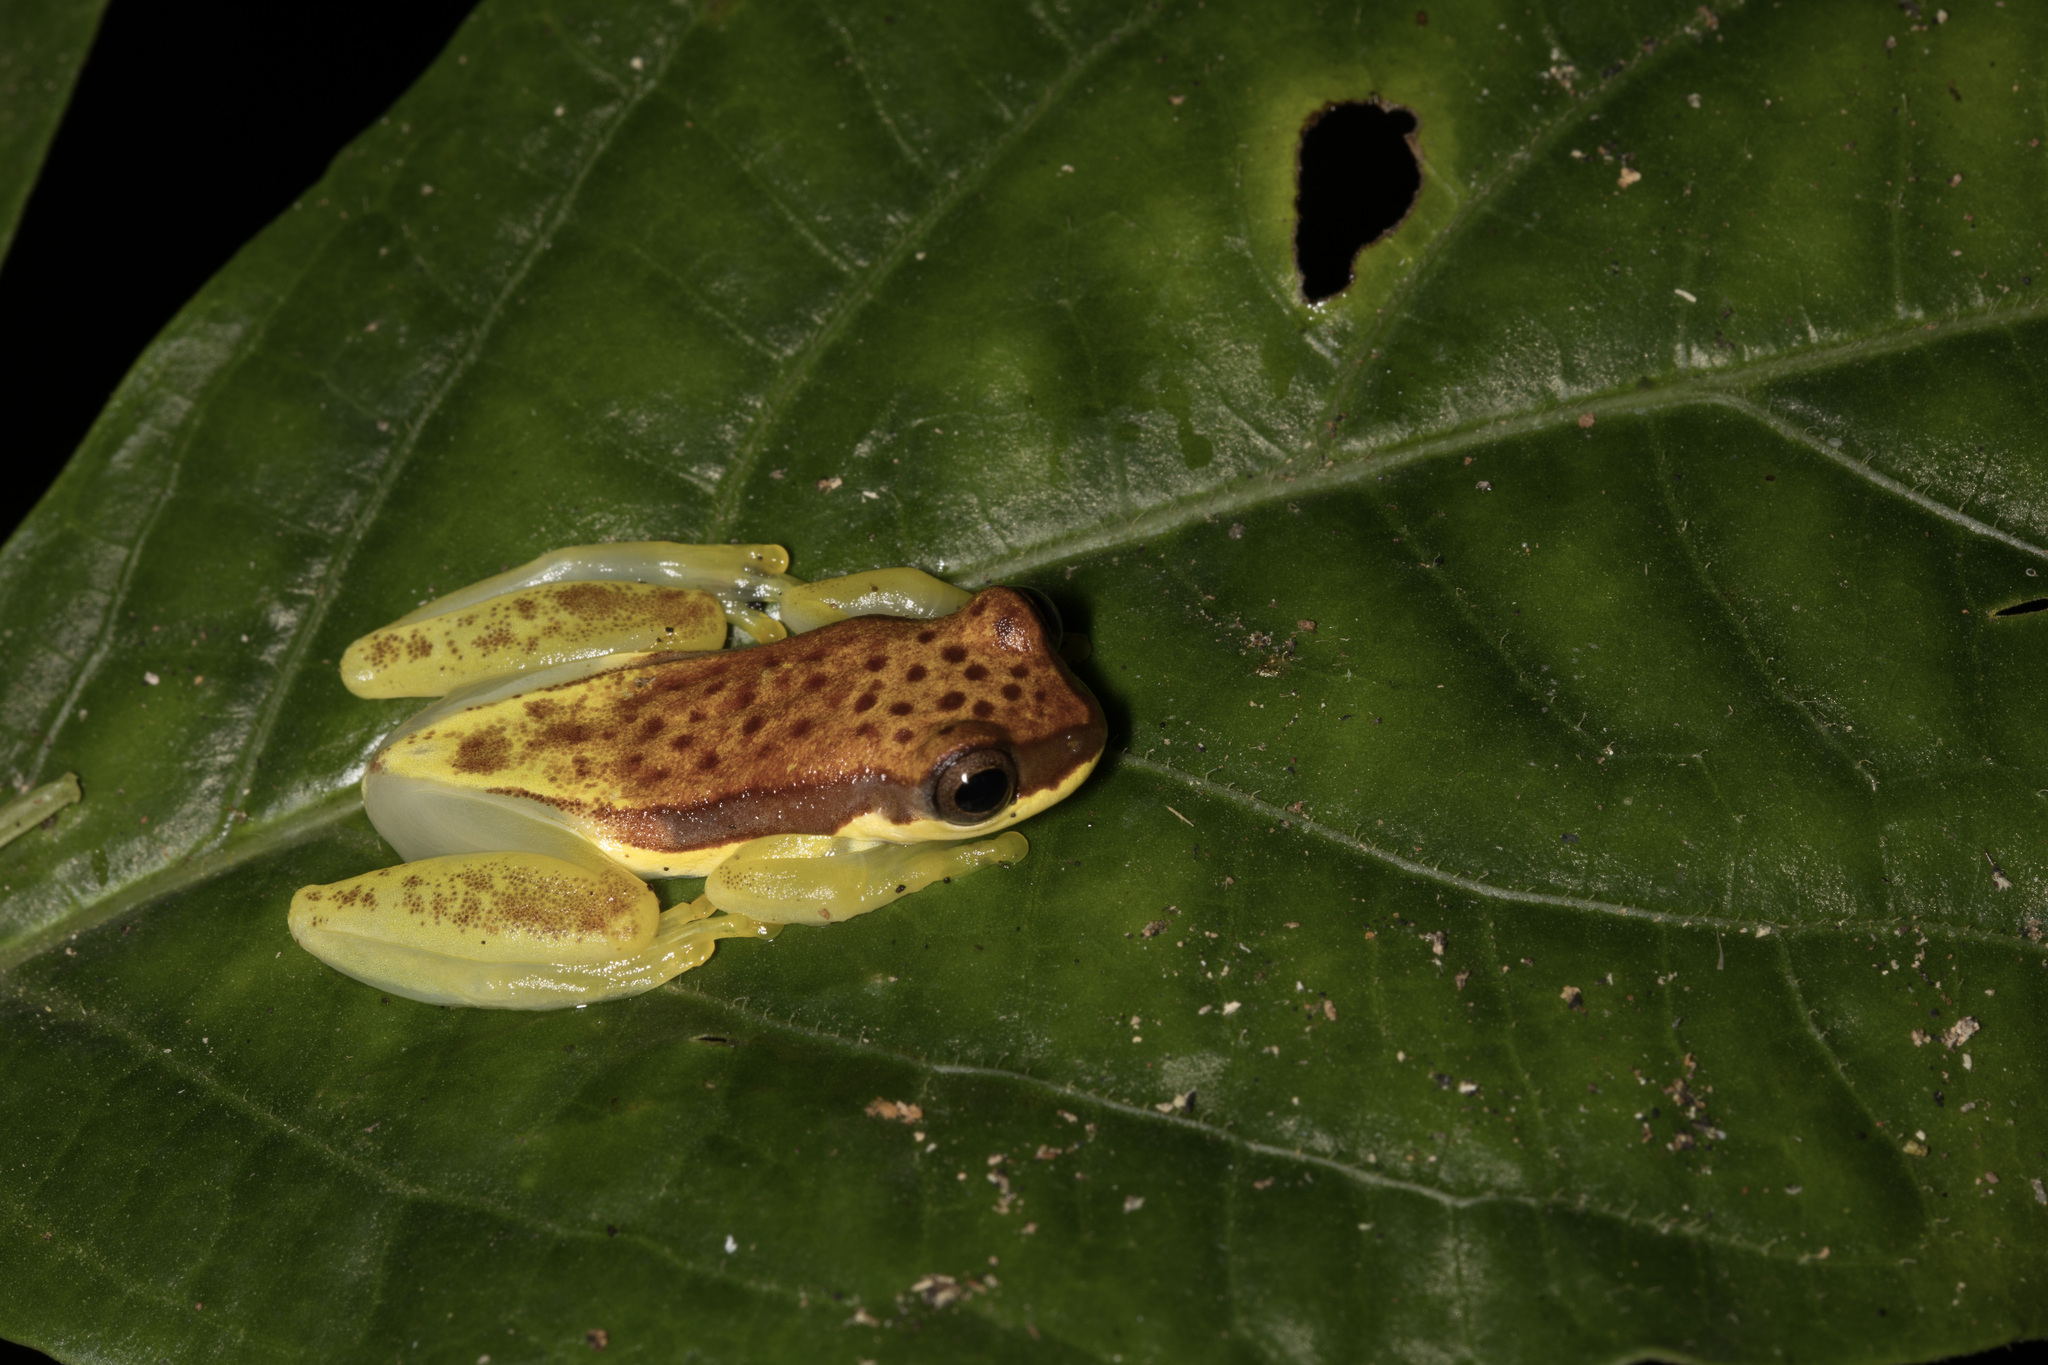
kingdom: Animalia
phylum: Chordata
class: Amphibia
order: Anura
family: Hylidae
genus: Dendropsophus
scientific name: Dendropsophus rhodopeplus
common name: Red-skirted treefrog
